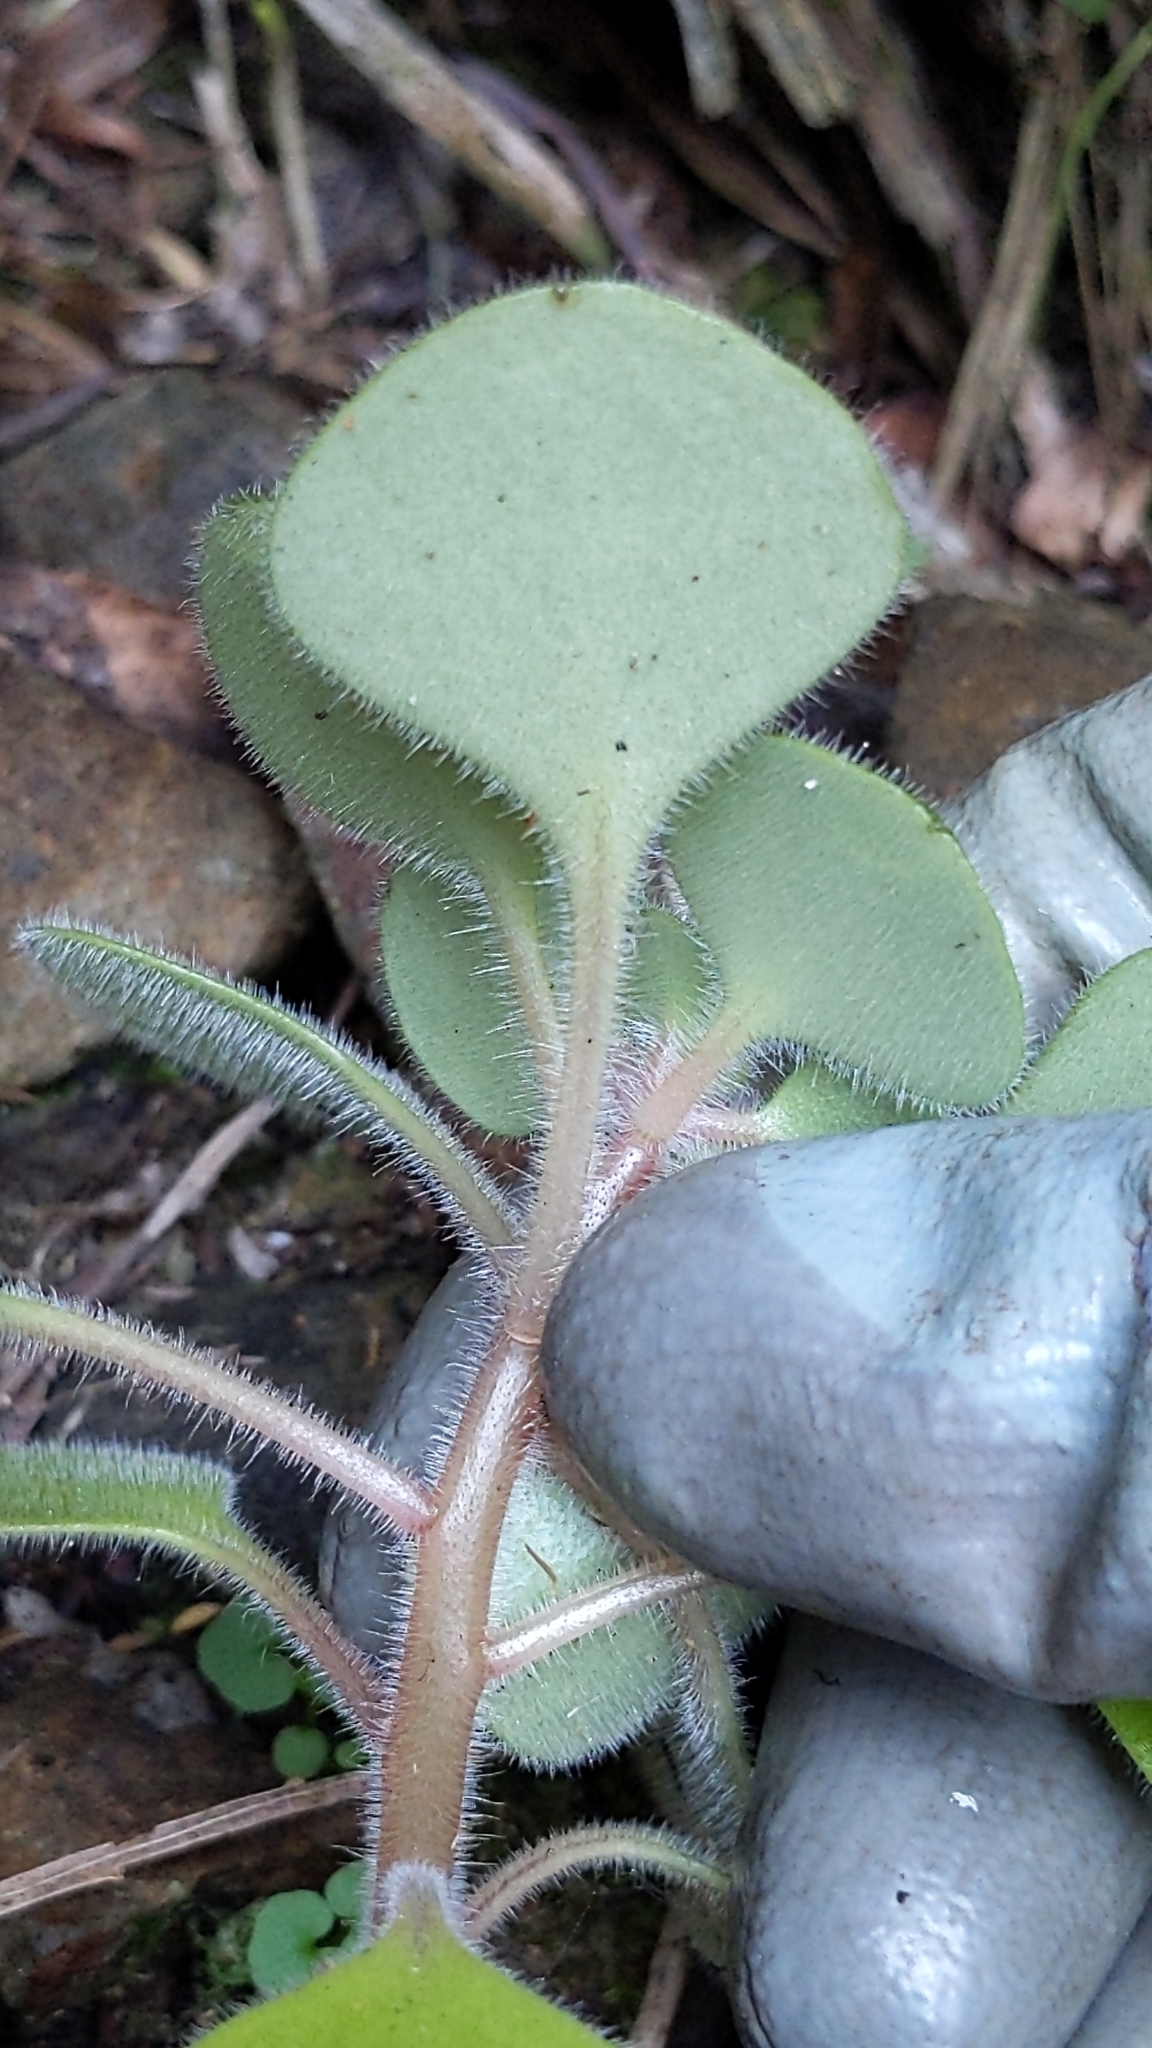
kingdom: Plantae
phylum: Tracheophyta
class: Magnoliopsida
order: Saxifragales
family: Crassulaceae
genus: Aichryson
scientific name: Aichryson laxum
